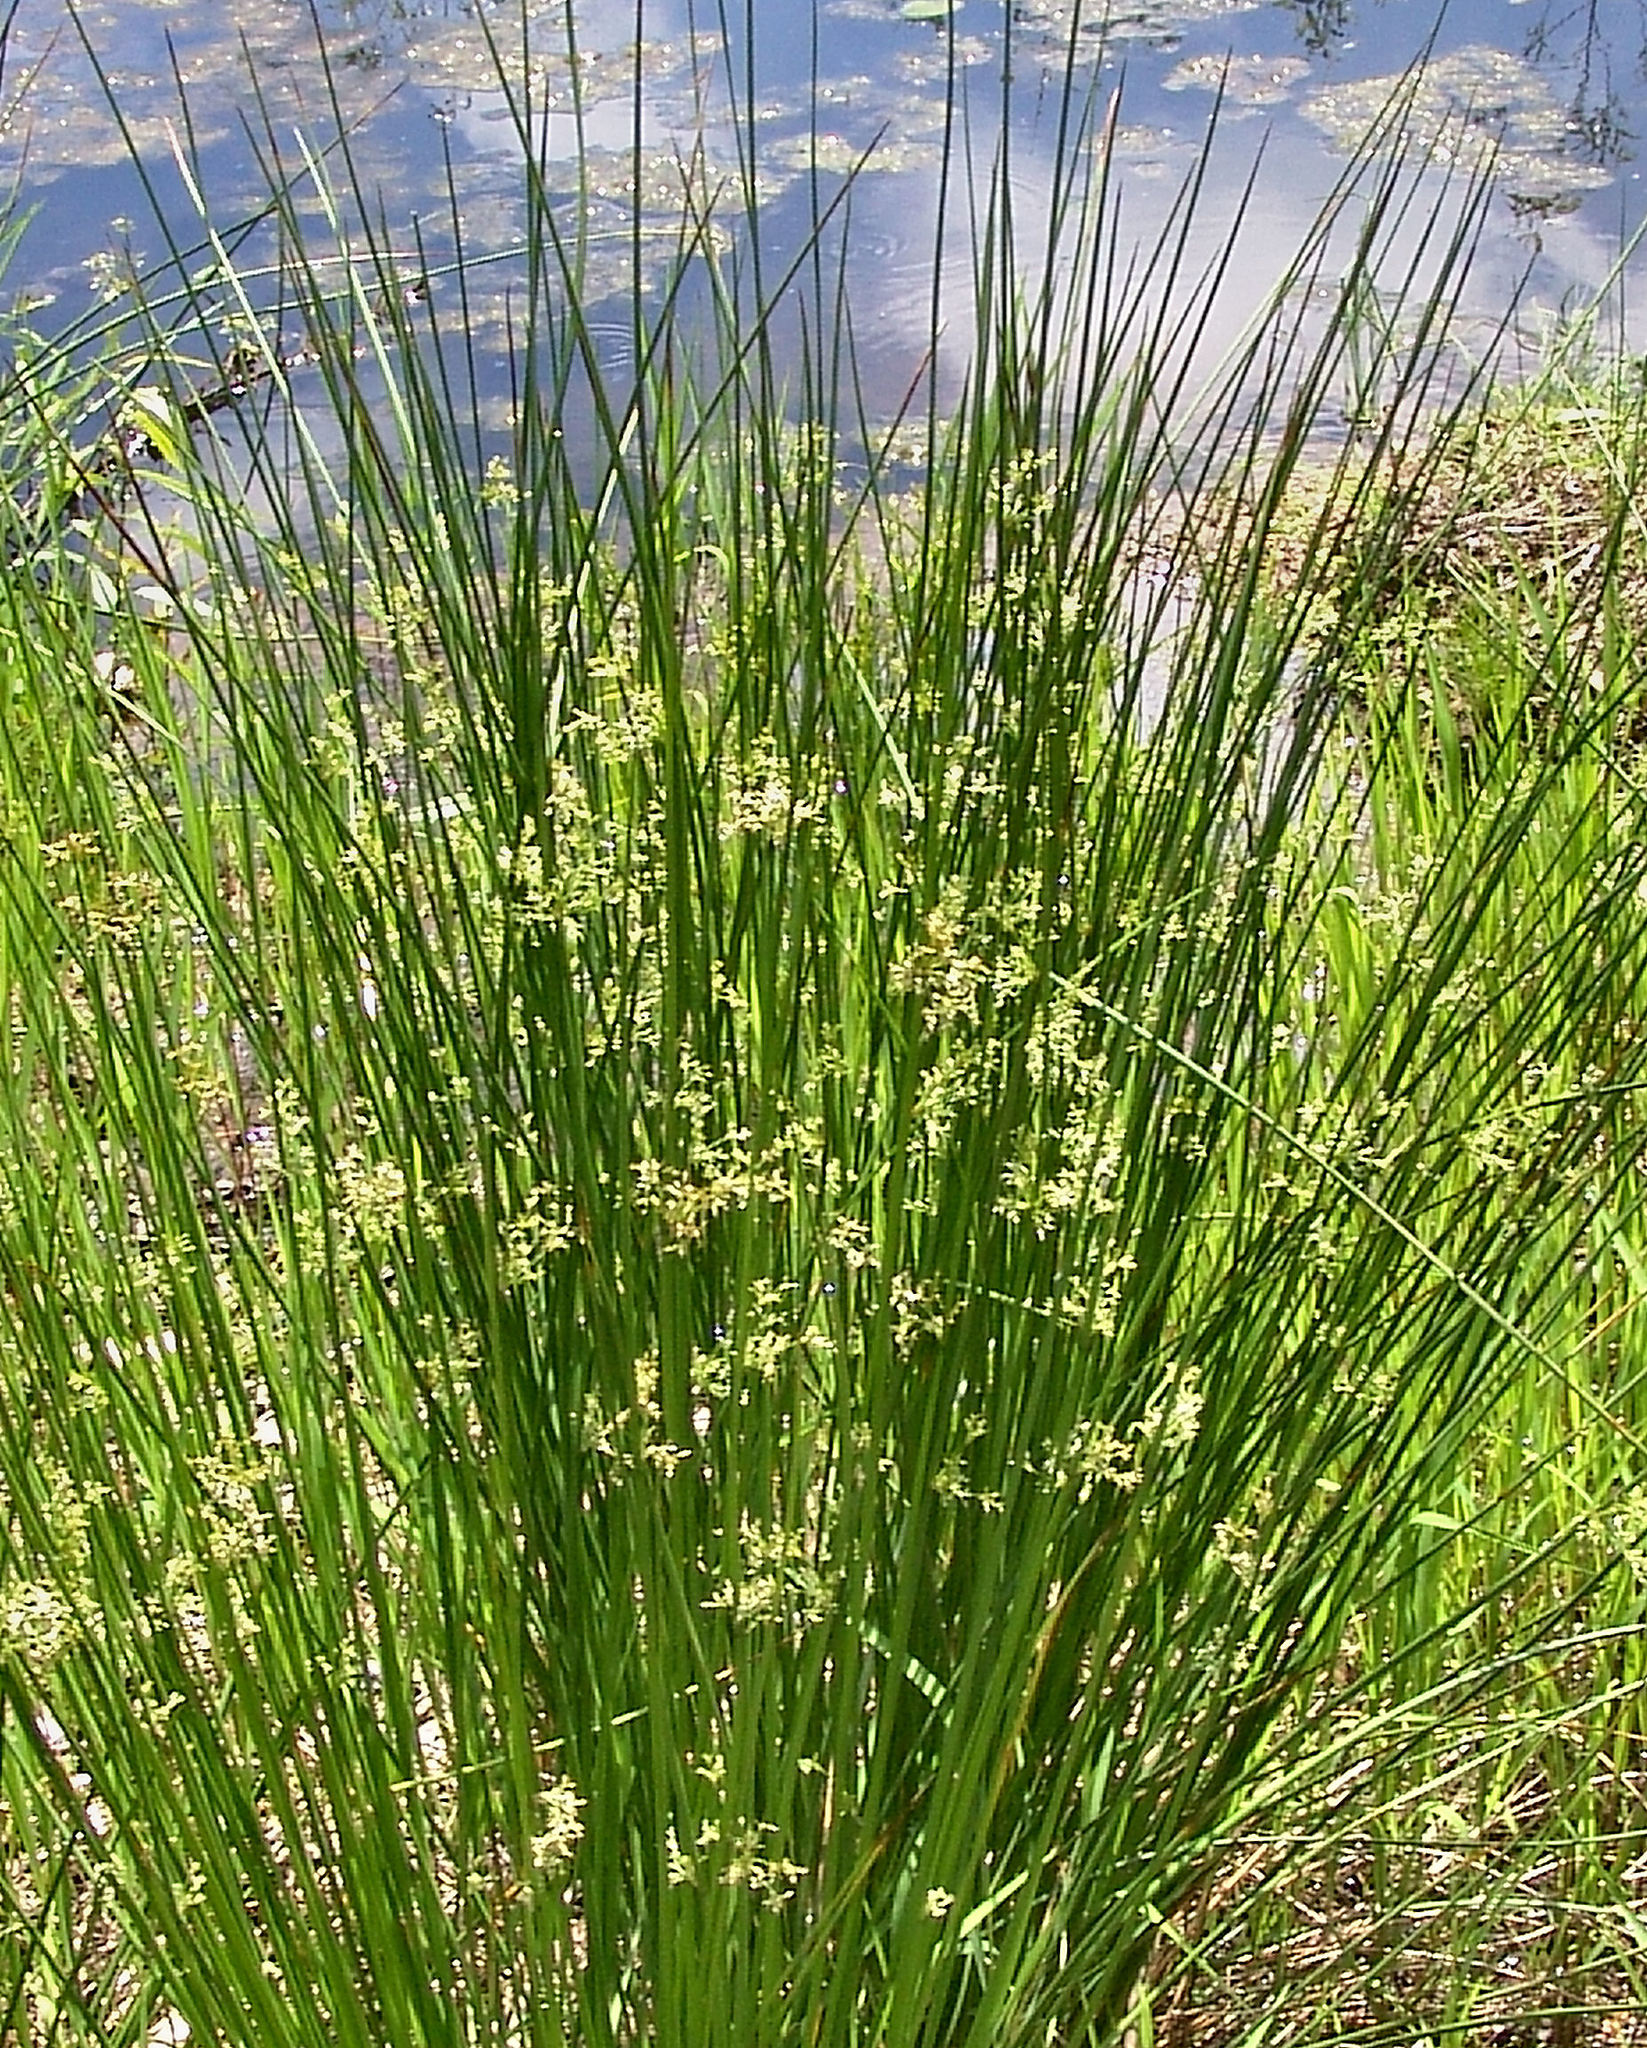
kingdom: Plantae
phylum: Tracheophyta
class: Liliopsida
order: Poales
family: Juncaceae
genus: Juncus
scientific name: Juncus effusus
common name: Soft rush
